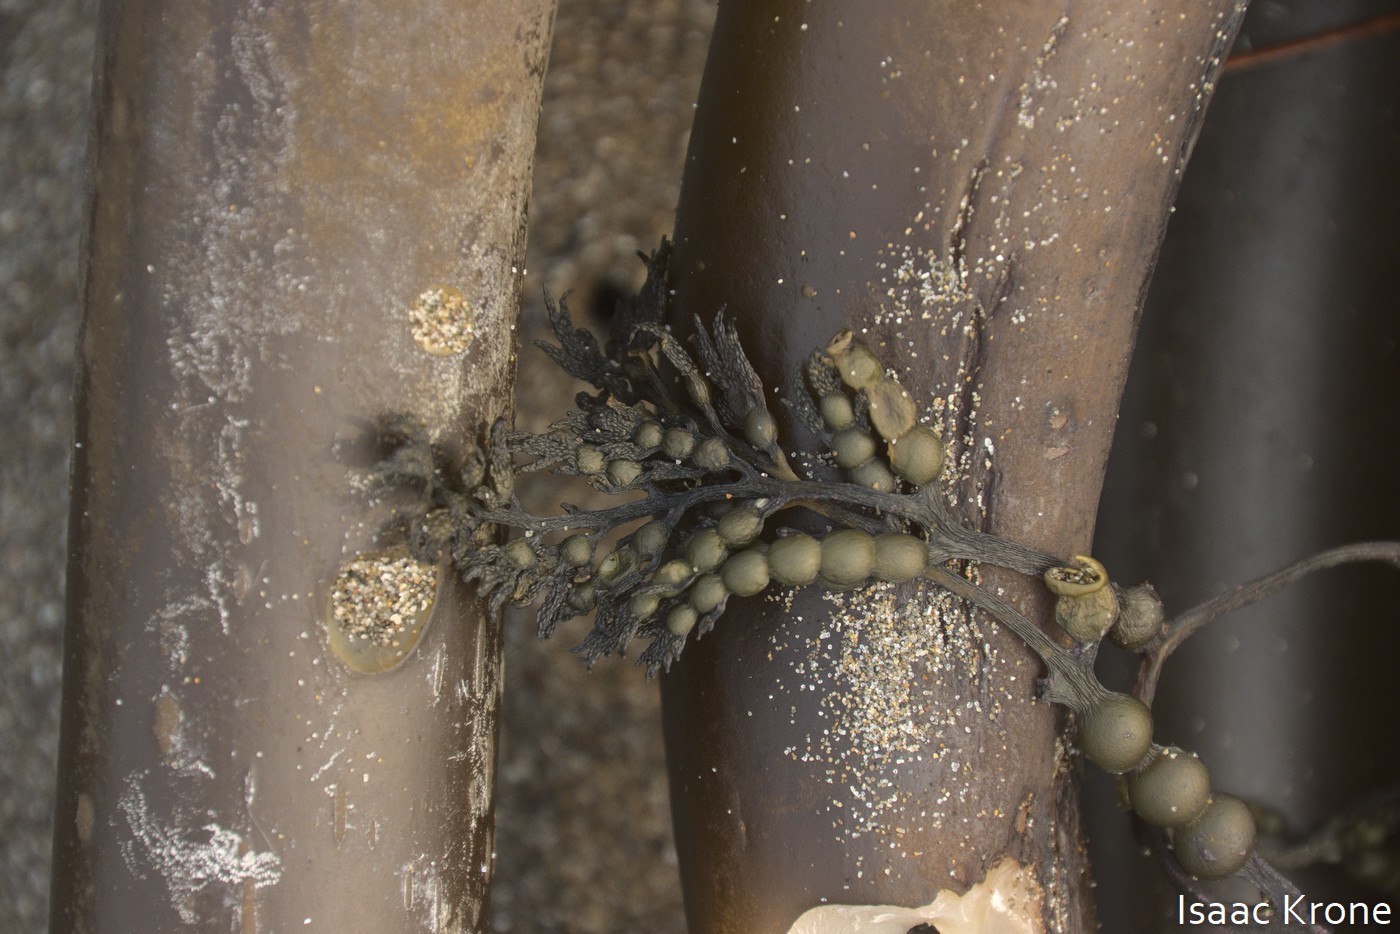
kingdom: Chromista
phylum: Ochrophyta
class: Phaeophyceae
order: Fucales
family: Sargassaceae
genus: Stephanocystis
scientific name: Stephanocystis
